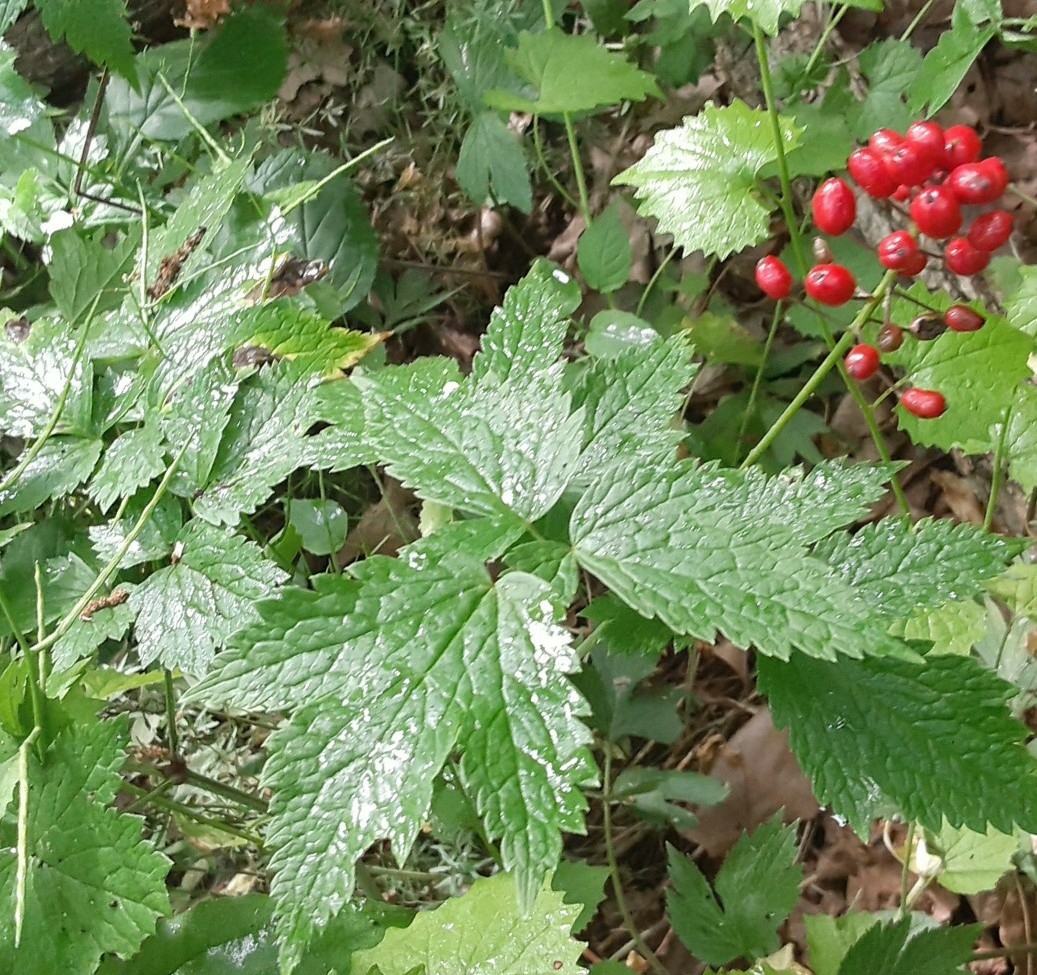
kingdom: Plantae
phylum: Tracheophyta
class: Magnoliopsida
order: Ranunculales
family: Ranunculaceae
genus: Actaea
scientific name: Actaea rubra
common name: Red baneberry
